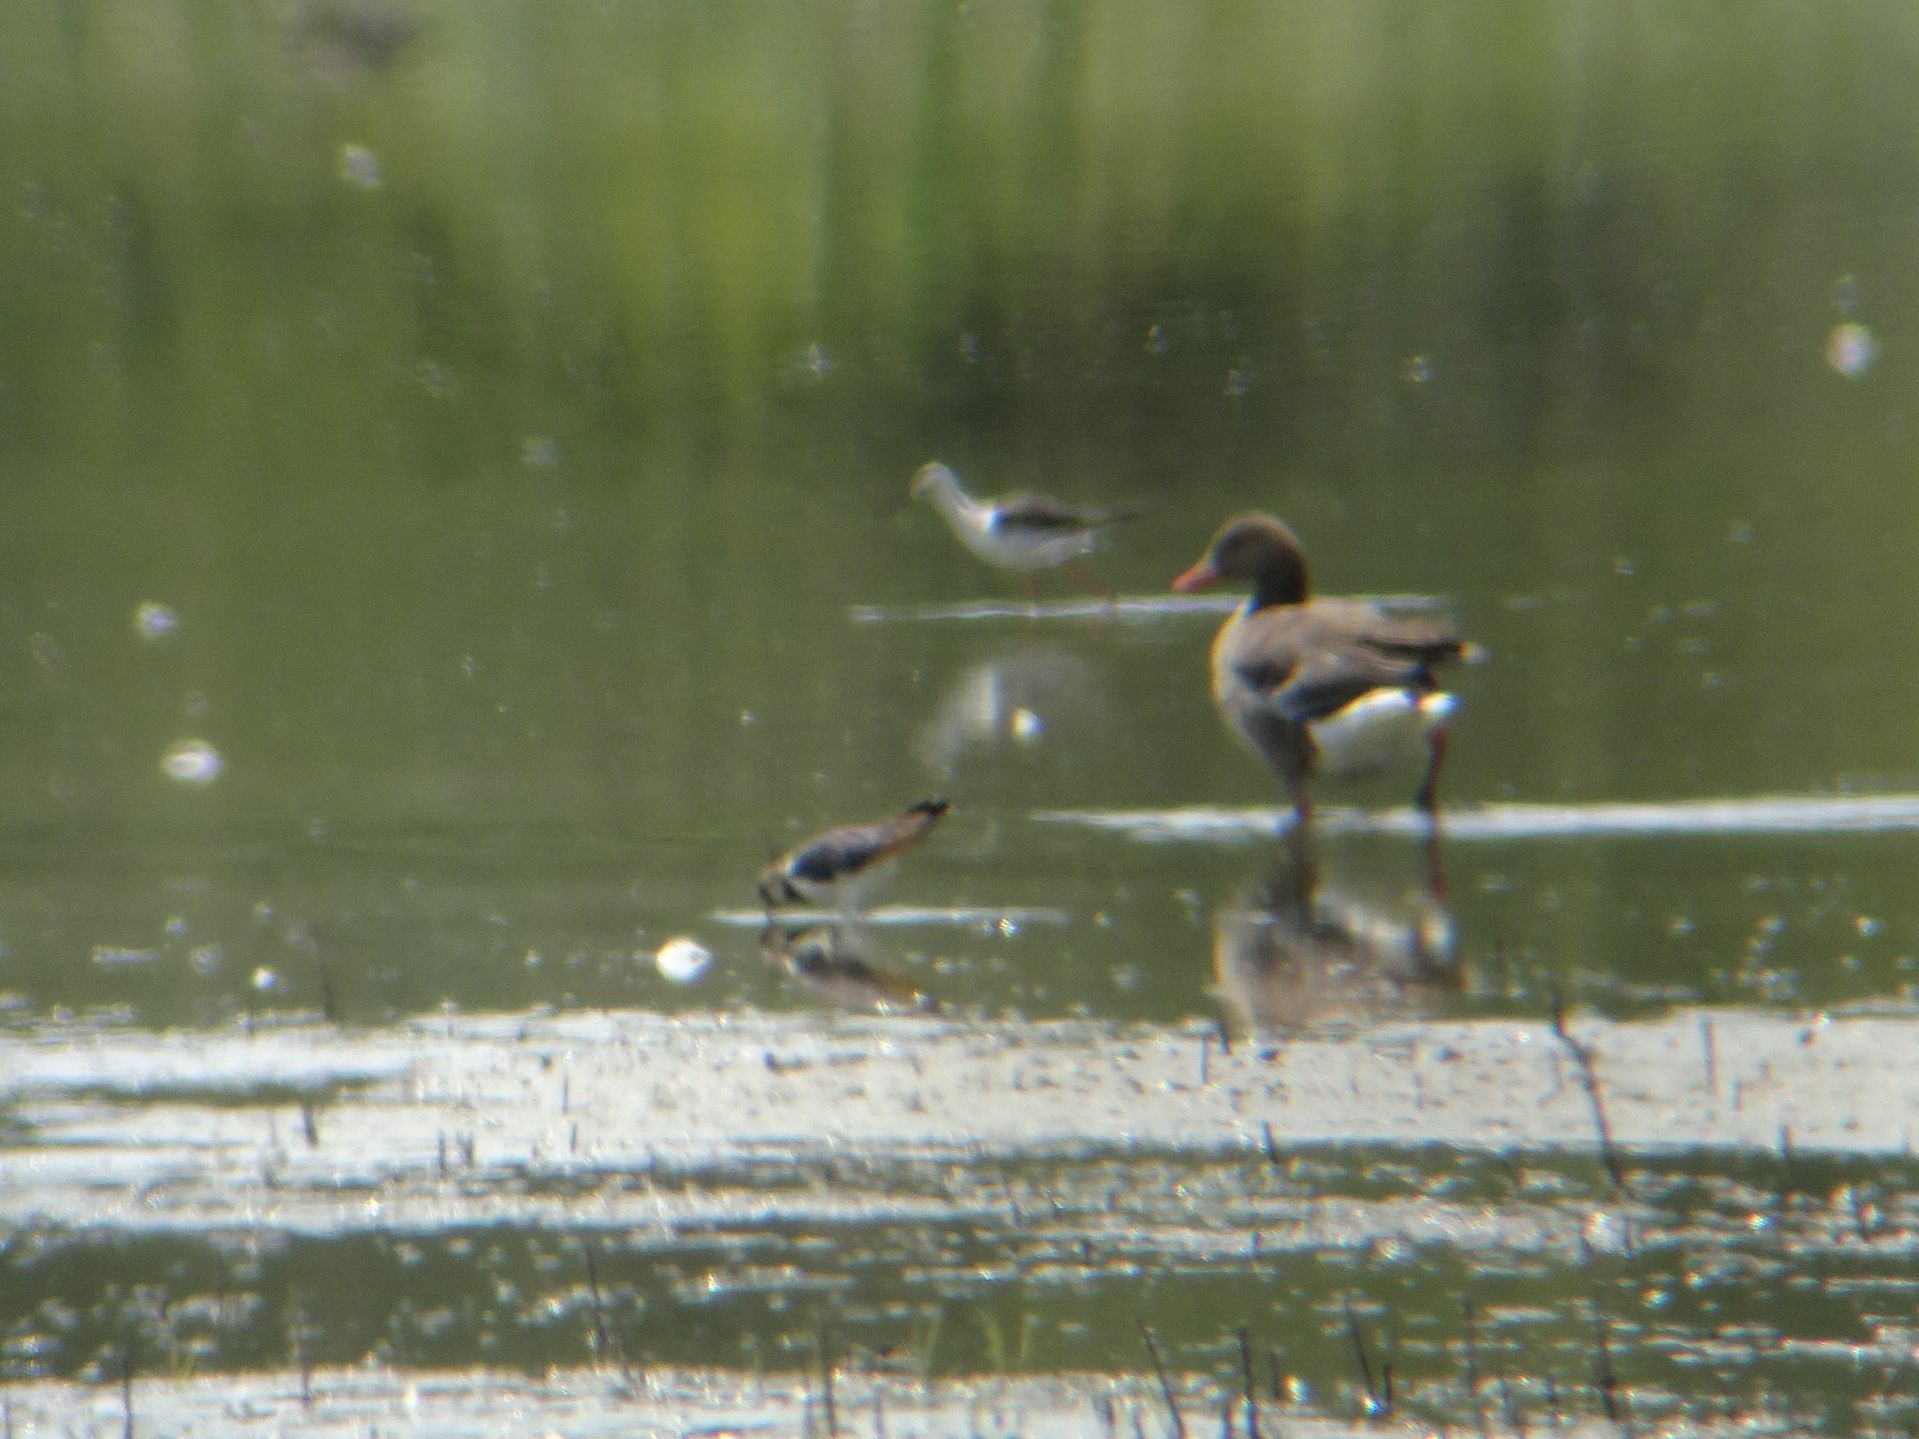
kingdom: Animalia
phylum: Chordata
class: Aves
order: Anseriformes
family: Anatidae
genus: Anser
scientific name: Anser anser
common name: Greylag goose
